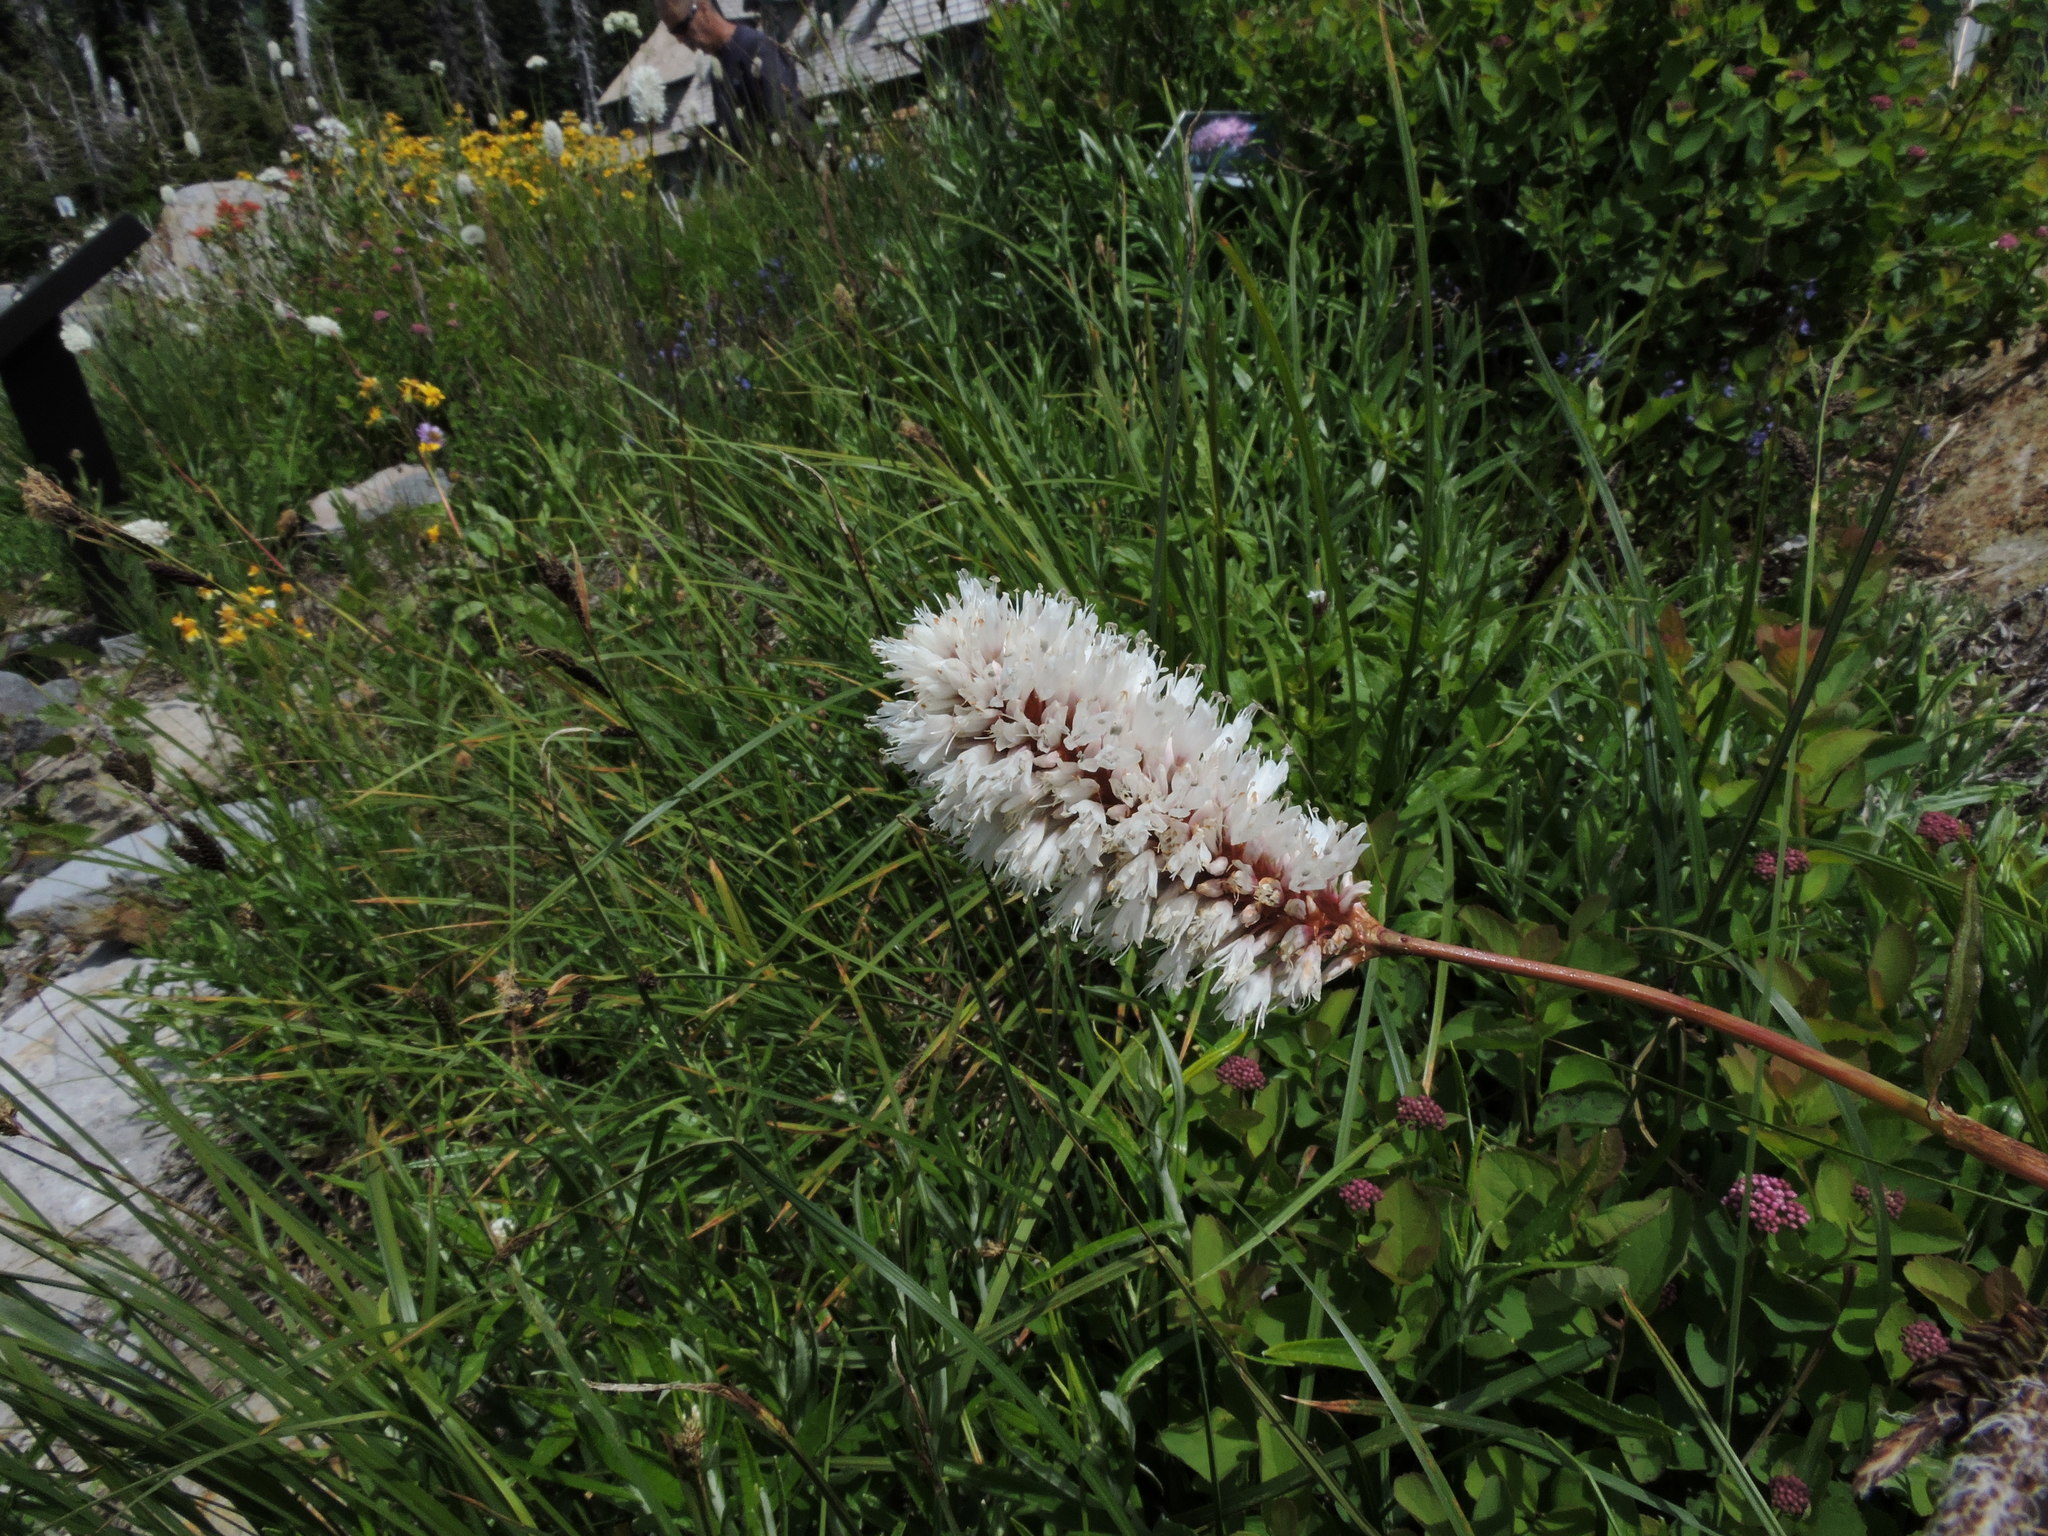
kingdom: Plantae
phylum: Tracheophyta
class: Magnoliopsida
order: Caryophyllales
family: Polygonaceae
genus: Bistorta
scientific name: Bistorta bistortoides
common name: American bistort
